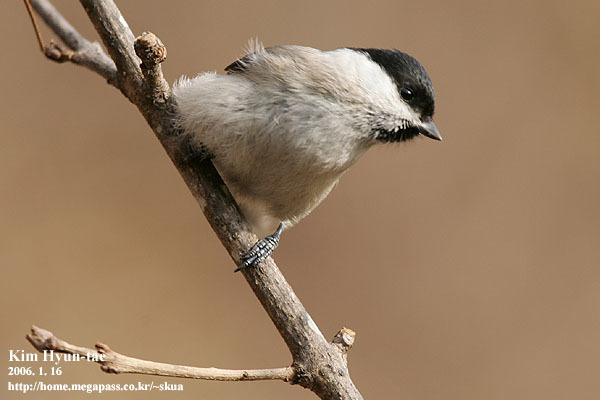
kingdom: Animalia
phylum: Chordata
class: Aves
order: Passeriformes
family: Paridae
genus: Poecile
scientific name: Poecile palustris
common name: Marsh tit
